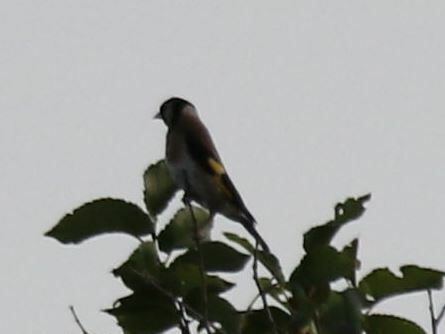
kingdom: Animalia
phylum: Chordata
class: Aves
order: Passeriformes
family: Fringillidae
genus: Carduelis
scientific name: Carduelis carduelis
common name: European goldfinch
